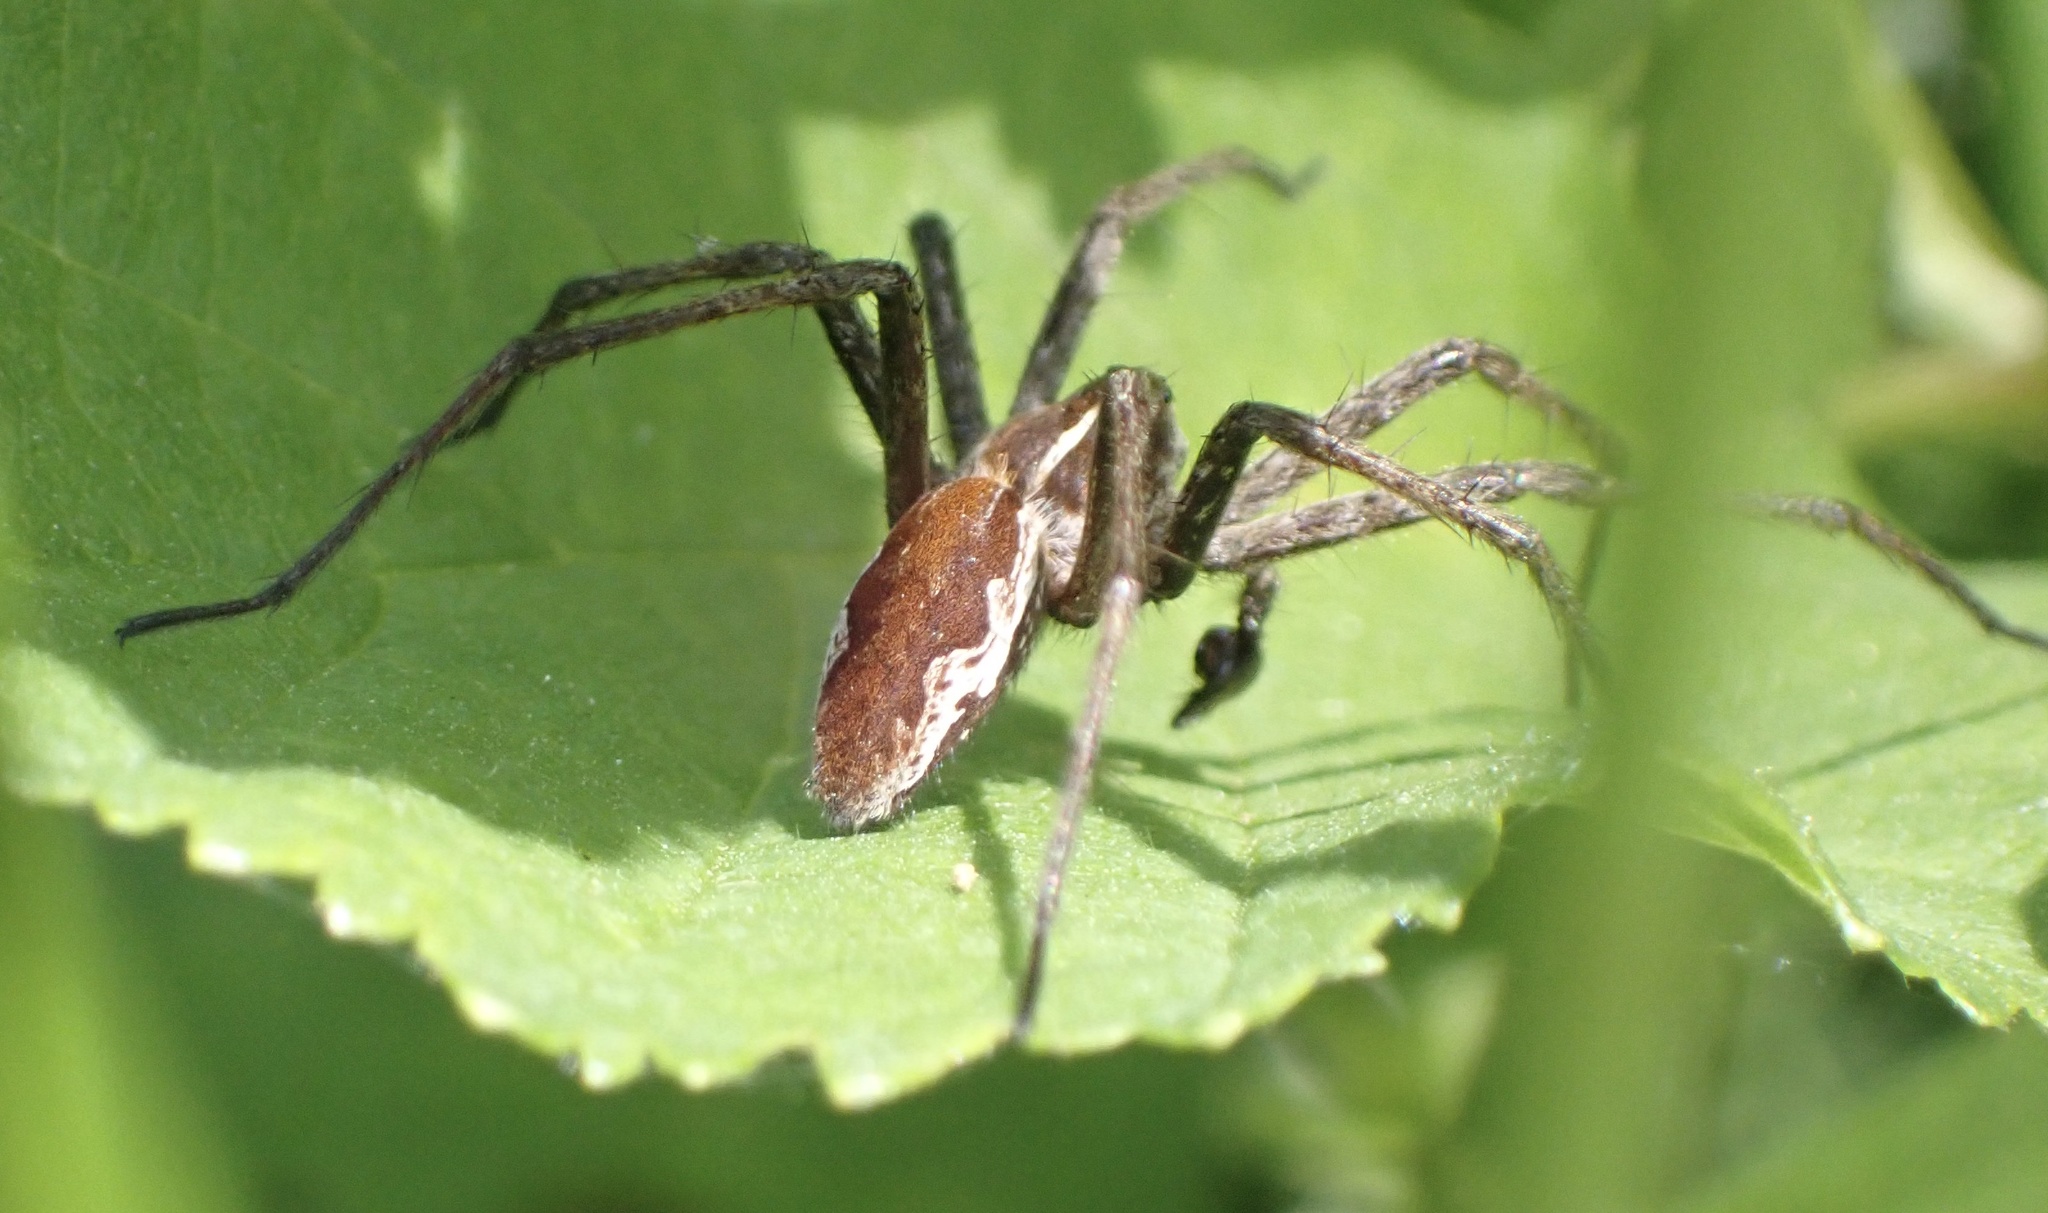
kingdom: Animalia
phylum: Arthropoda
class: Arachnida
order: Araneae
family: Pisauridae
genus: Pisaura
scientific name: Pisaura mirabilis
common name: Tent spider
